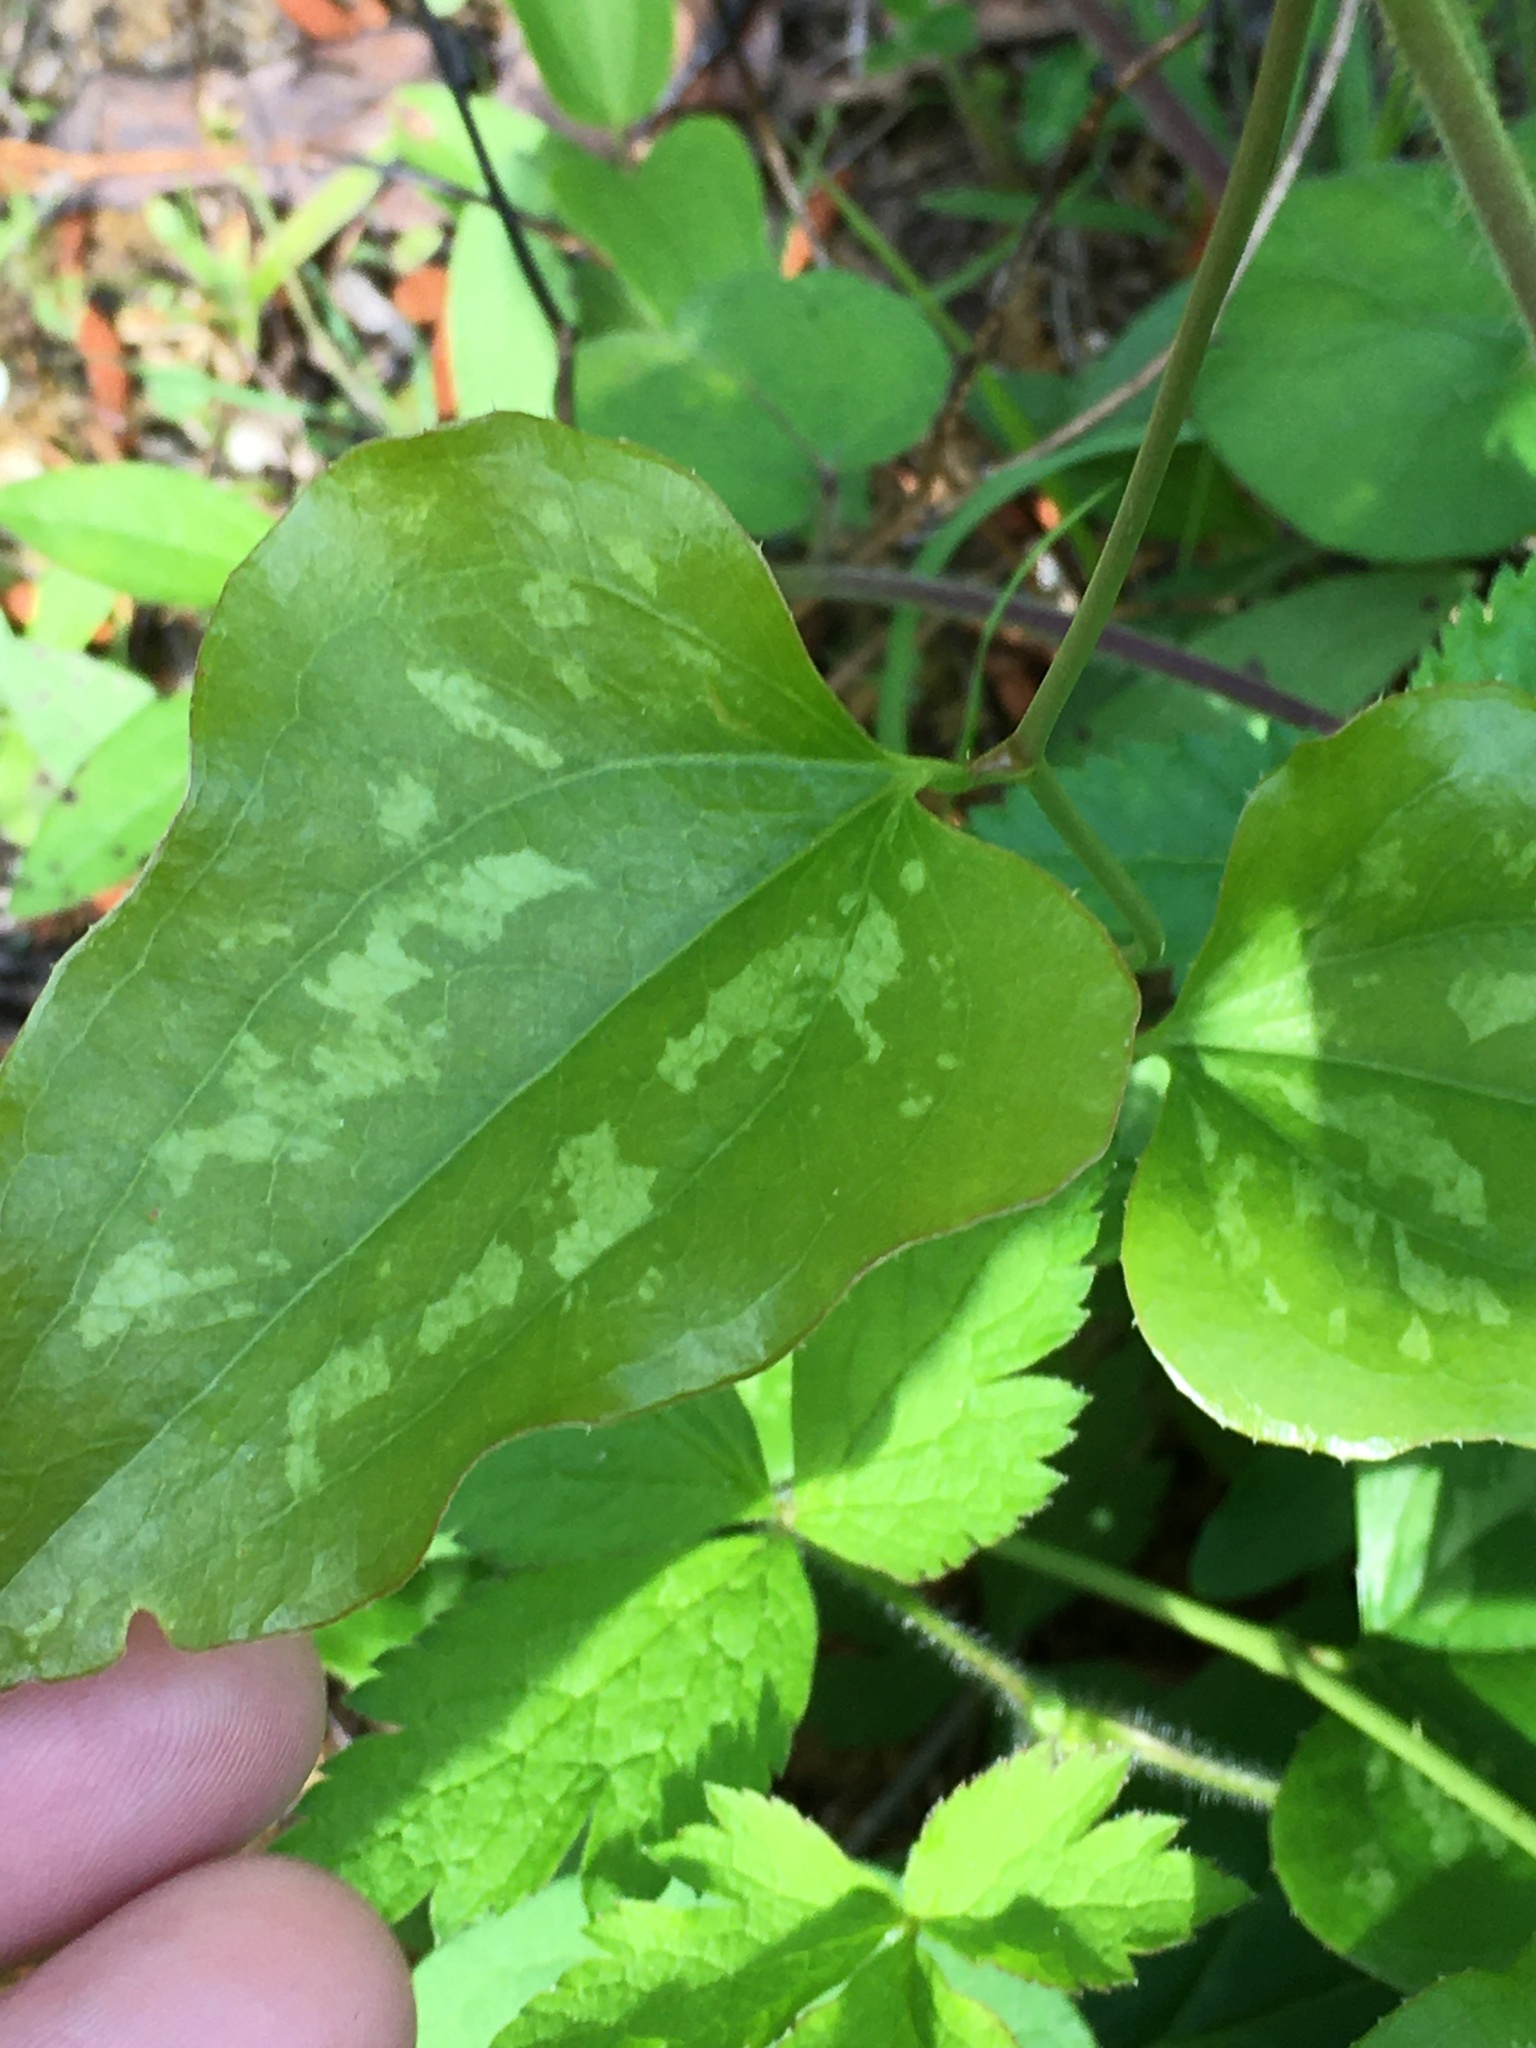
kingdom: Plantae
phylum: Tracheophyta
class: Liliopsida
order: Liliales
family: Smilacaceae
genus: Smilax
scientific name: Smilax bona-nox
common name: Catbrier
